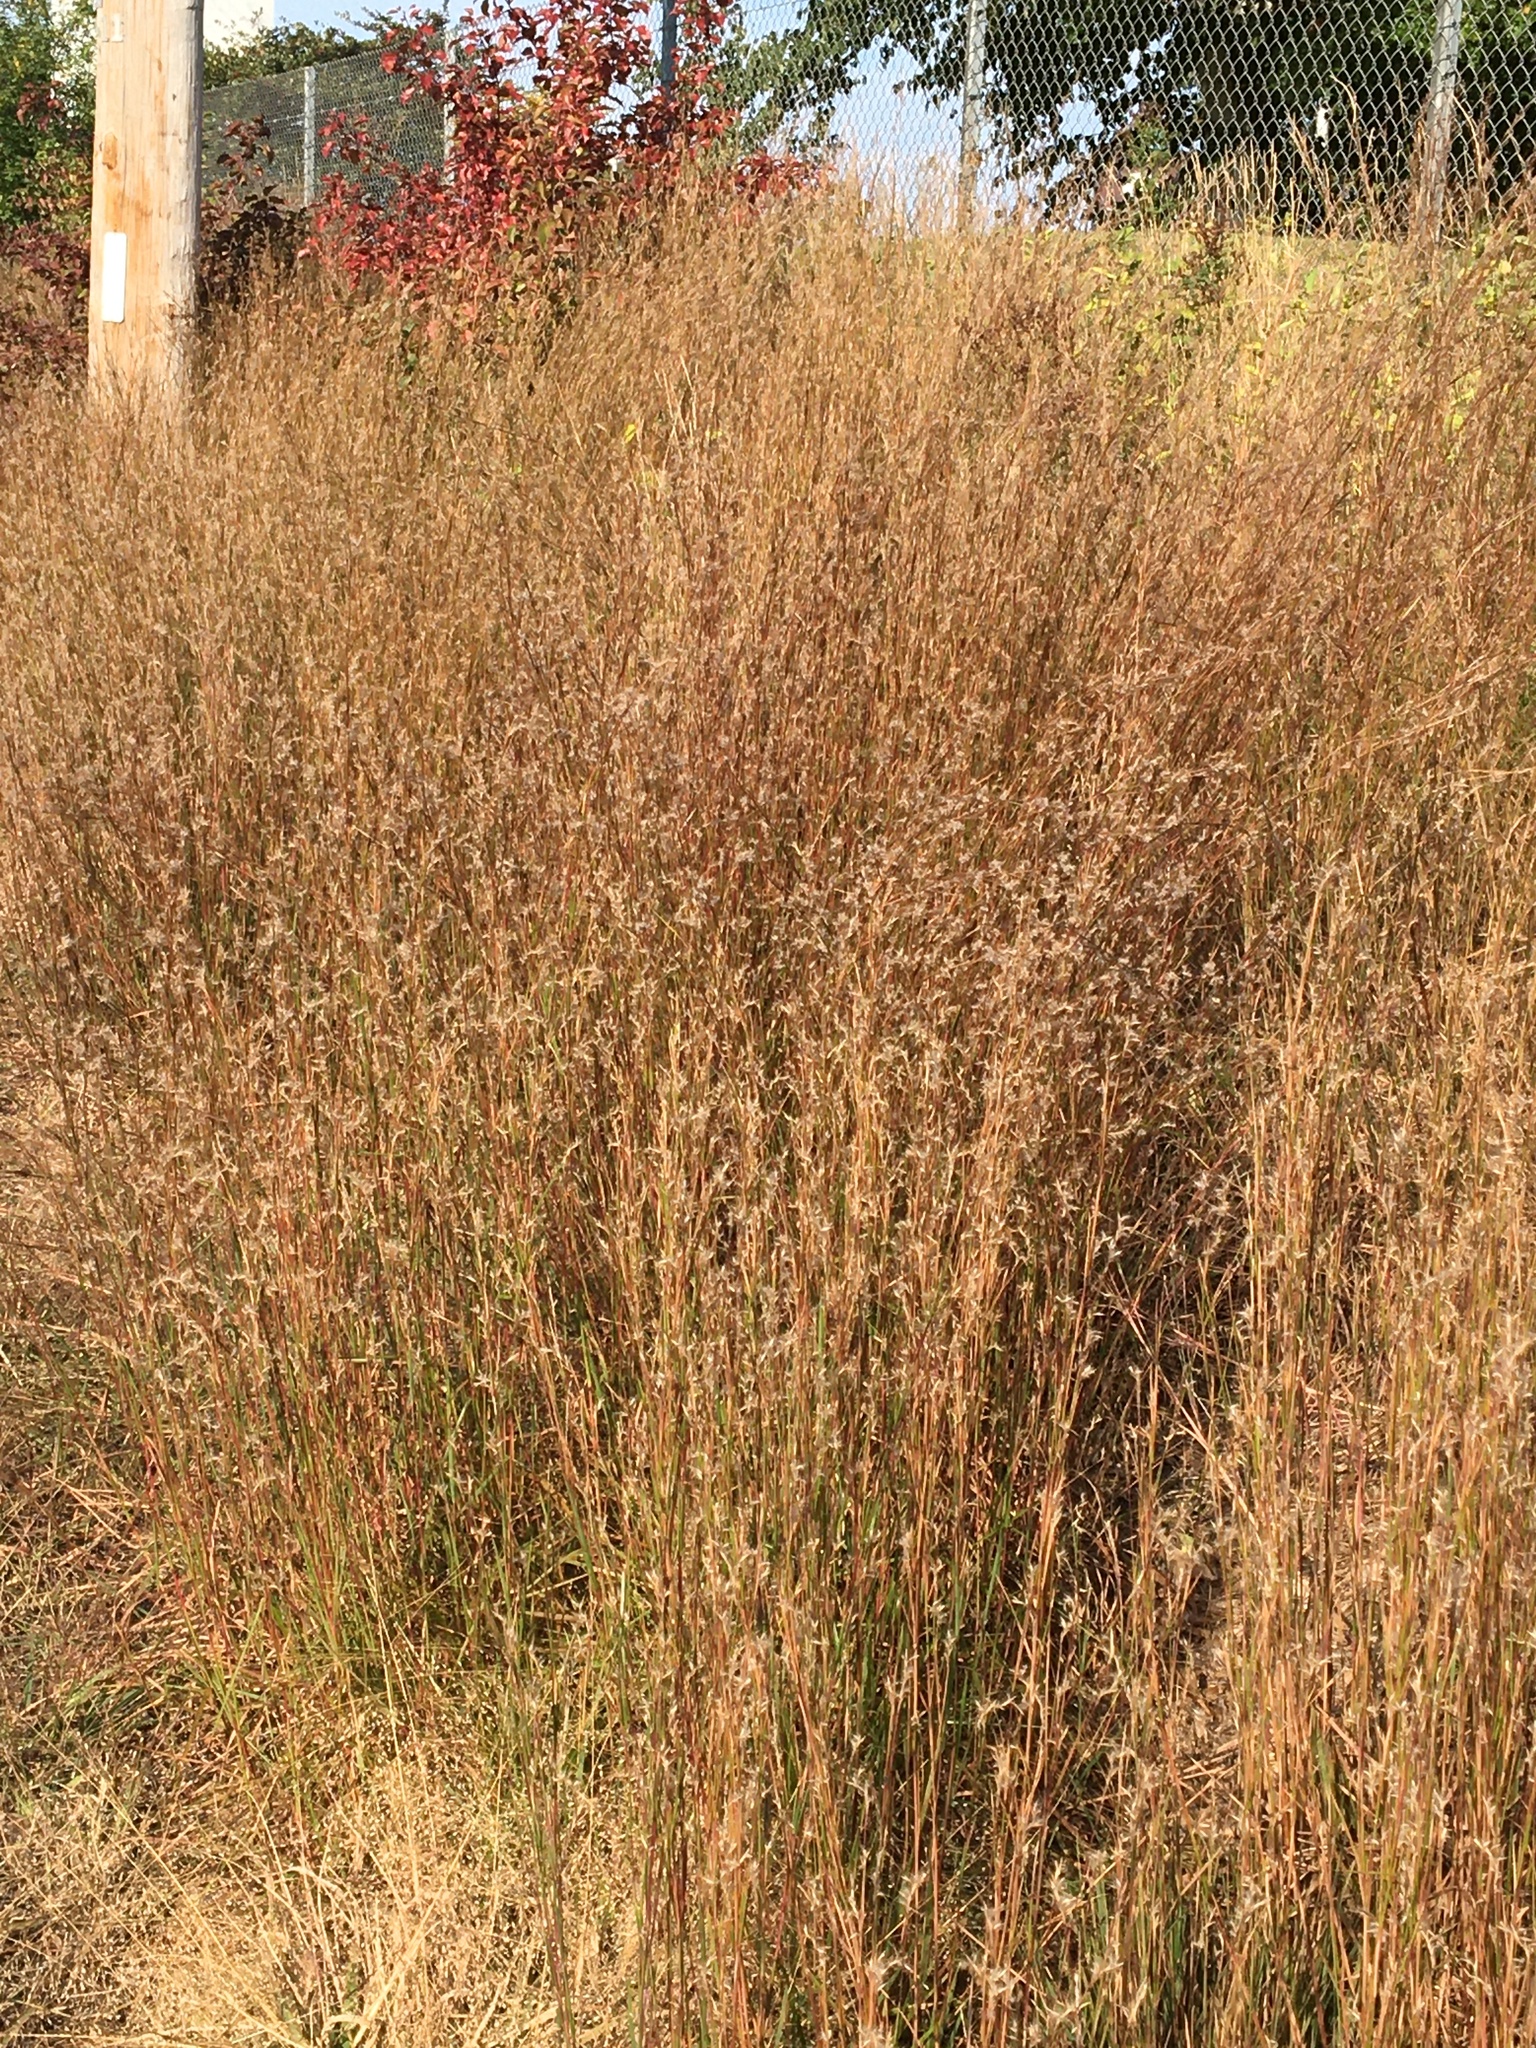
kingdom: Plantae
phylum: Tracheophyta
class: Liliopsida
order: Poales
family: Poaceae
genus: Schizachyrium
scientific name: Schizachyrium scoparium
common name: Little bluestem
